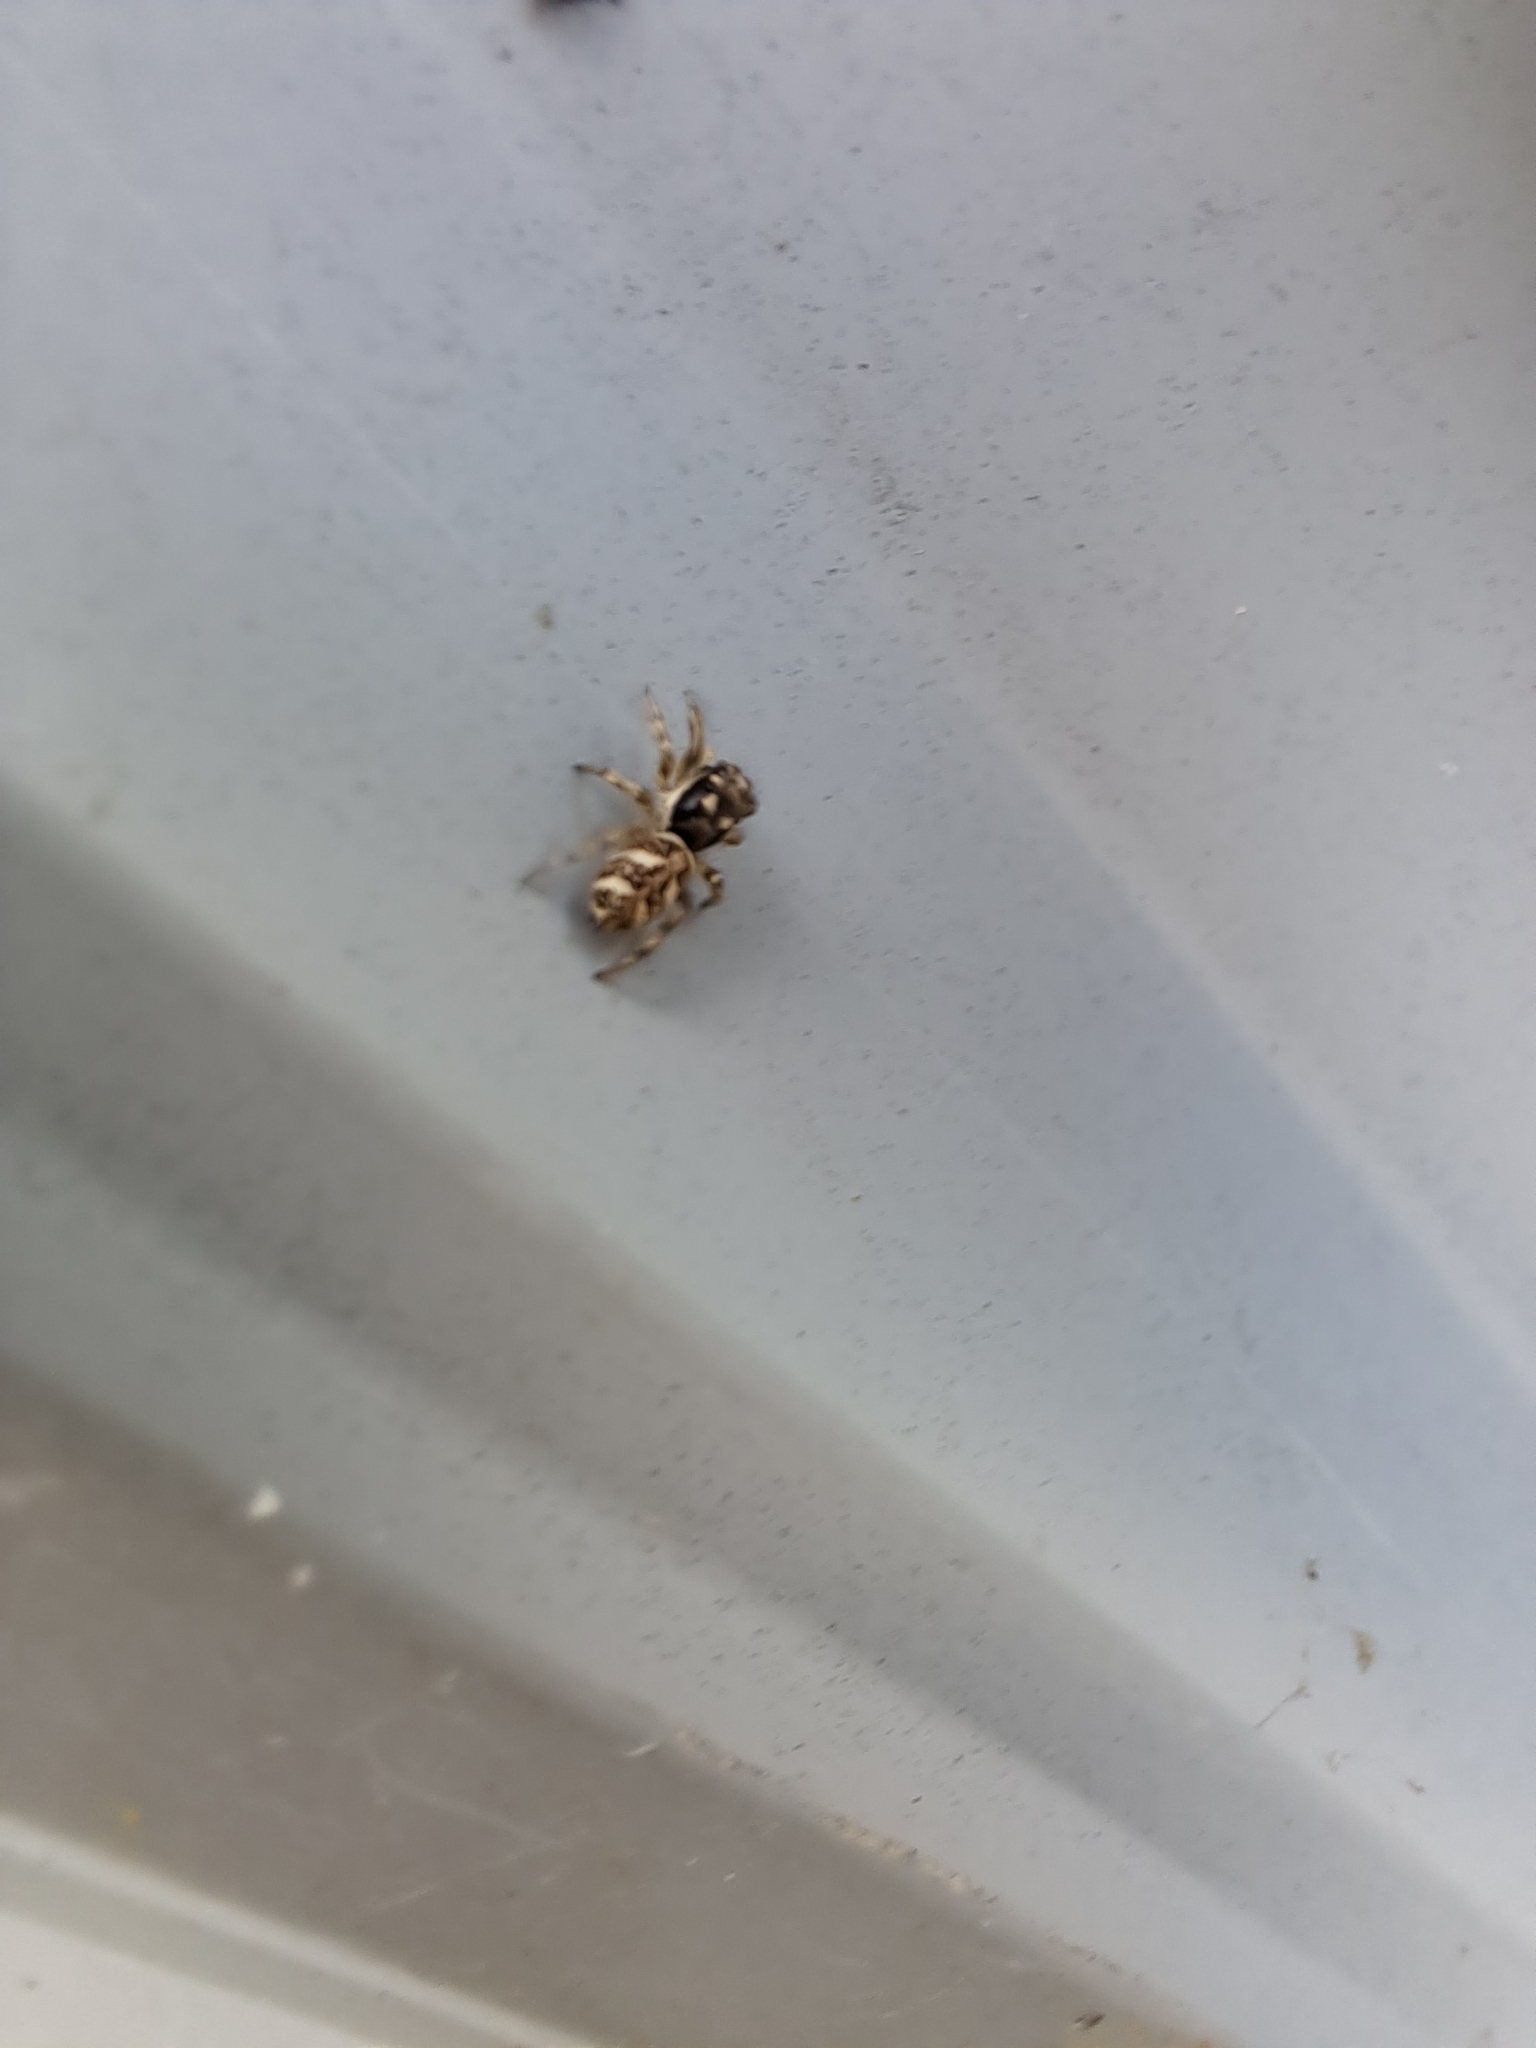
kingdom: Animalia
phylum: Arthropoda
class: Arachnida
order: Araneae
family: Salticidae
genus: Salticus
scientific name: Salticus scenicus
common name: Zebra jumper
